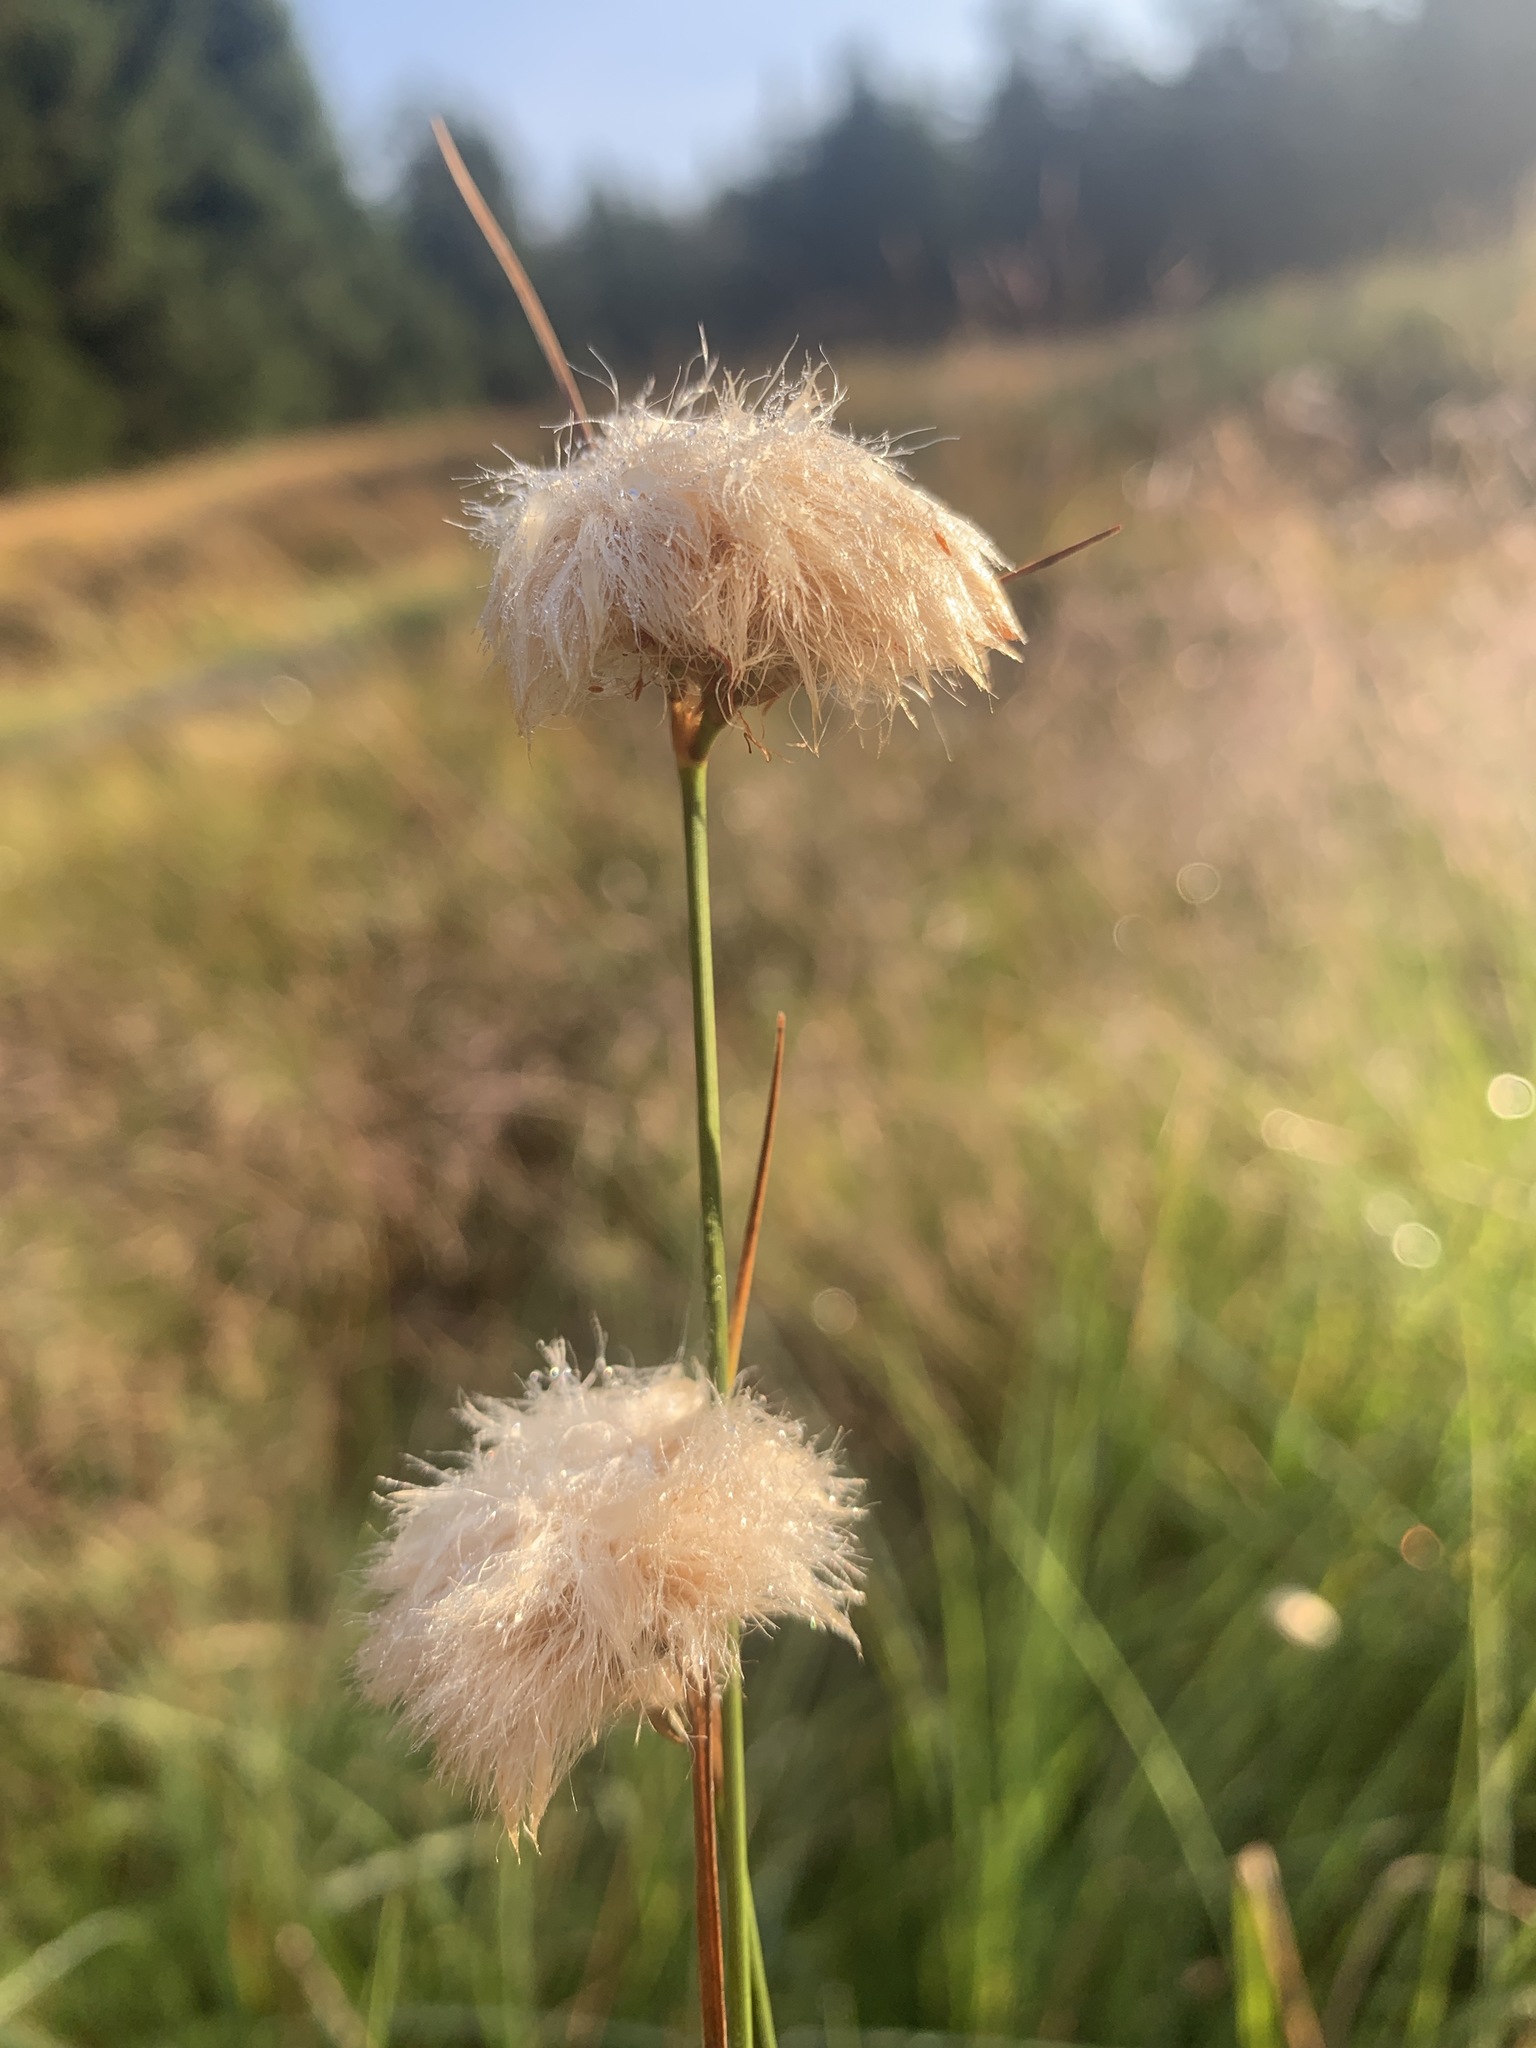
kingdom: Plantae
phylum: Tracheophyta
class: Liliopsida
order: Poales
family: Cyperaceae
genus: Eriophorum
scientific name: Eriophorum virginicum
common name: Tawny cottongrass
